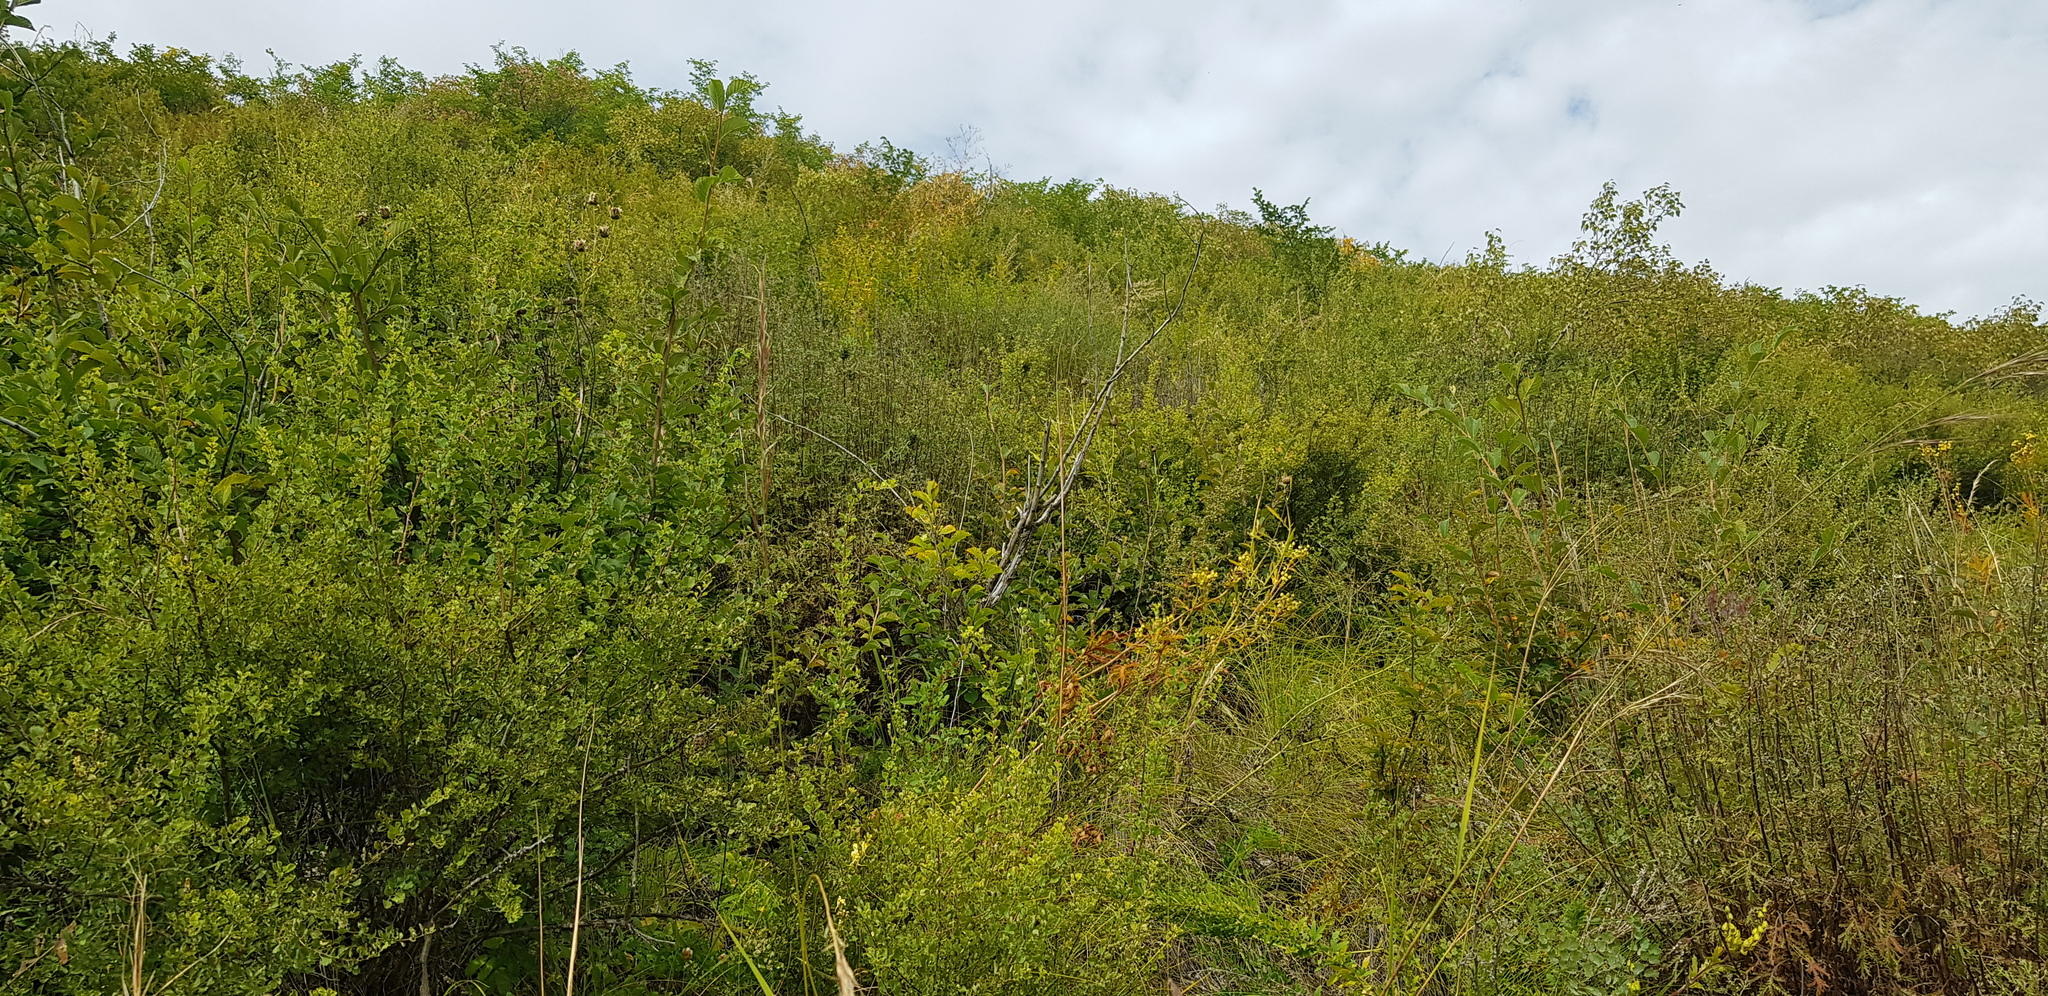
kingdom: Plantae
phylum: Tracheophyta
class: Magnoliopsida
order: Rosales
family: Rosaceae
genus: Prunus
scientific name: Prunus padus
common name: Bird cherry
